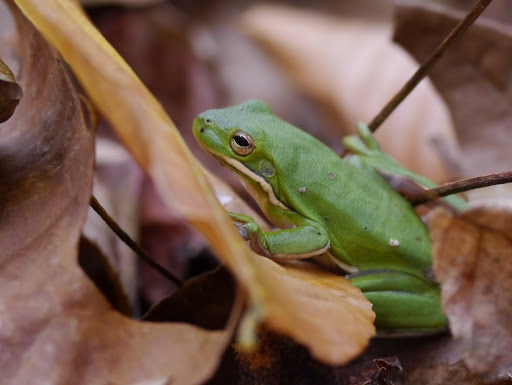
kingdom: Animalia
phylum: Chordata
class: Amphibia
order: Anura
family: Hylidae
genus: Dryophytes
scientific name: Dryophytes cinereus
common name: Green treefrog
